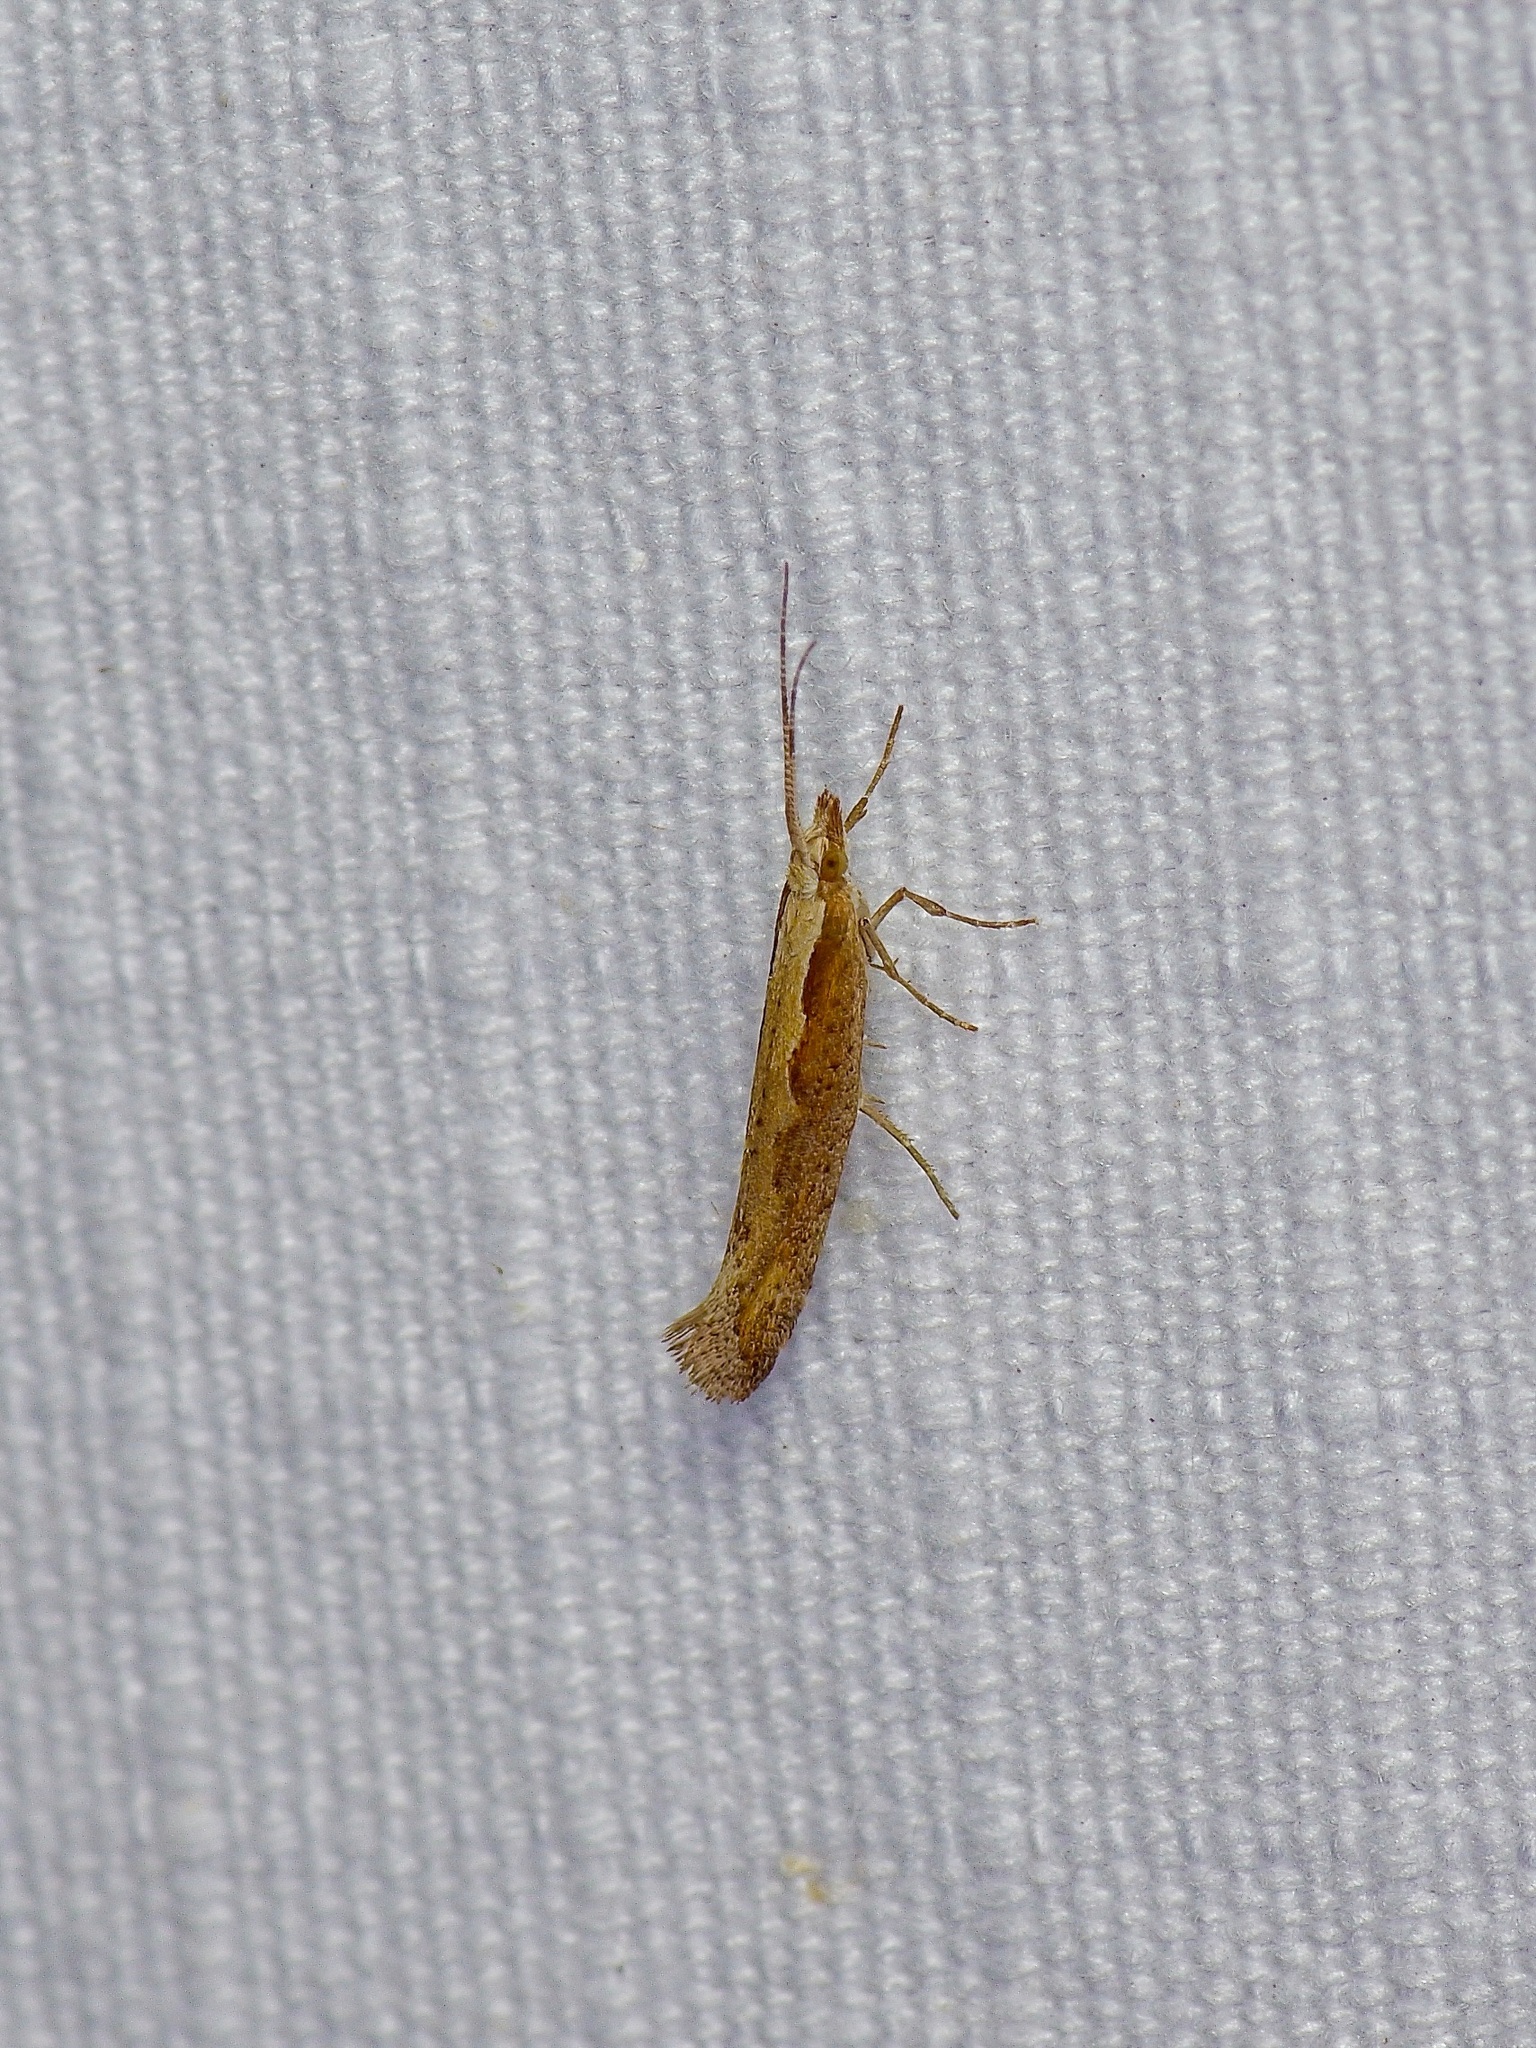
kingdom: Animalia
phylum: Arthropoda
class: Insecta
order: Lepidoptera
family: Plutellidae
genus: Plutella
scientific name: Plutella xylostella
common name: Diamond-back moth
